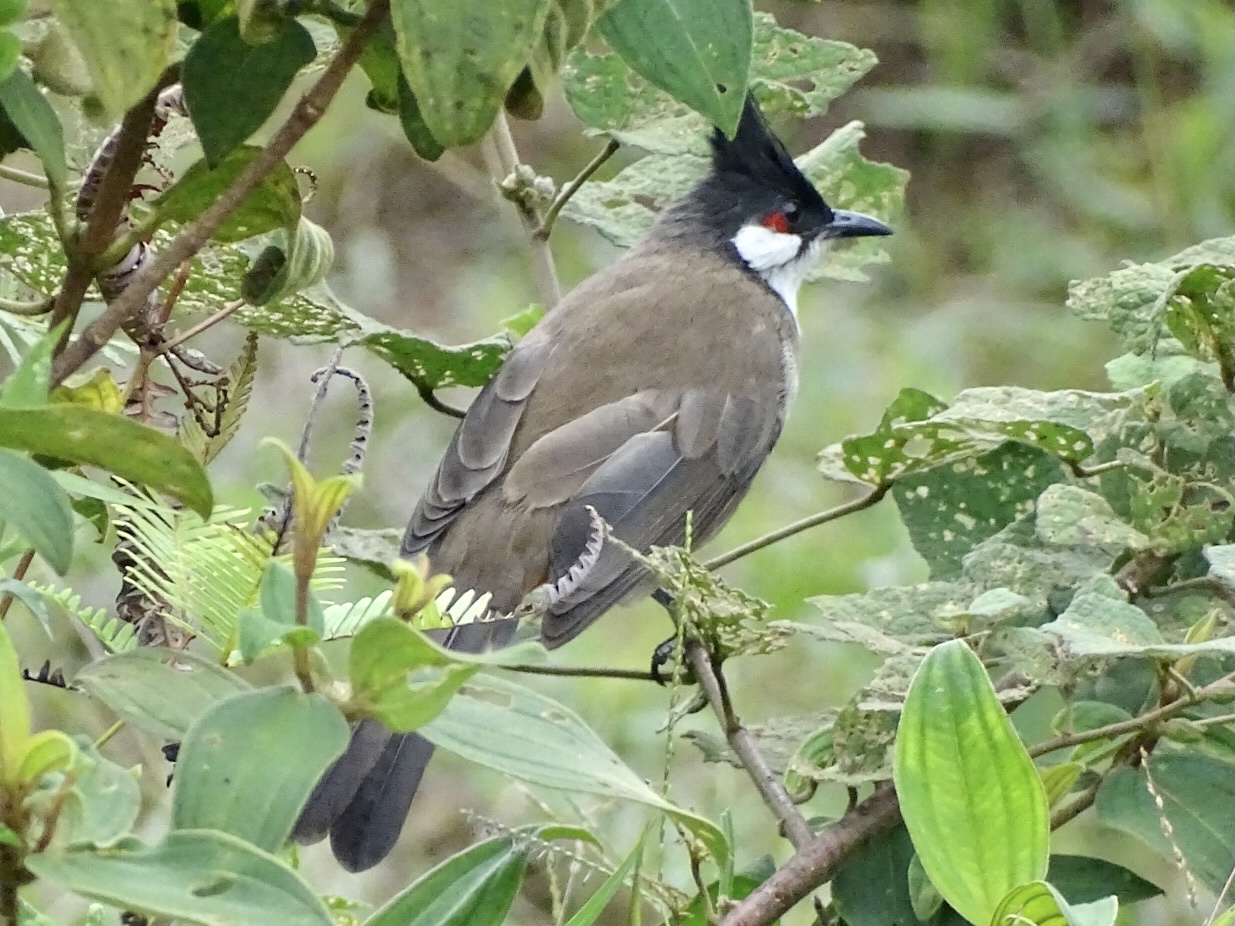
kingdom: Animalia
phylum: Chordata
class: Aves
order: Passeriformes
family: Pycnonotidae
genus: Pycnonotus
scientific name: Pycnonotus jocosus
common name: Red-whiskered bulbul
